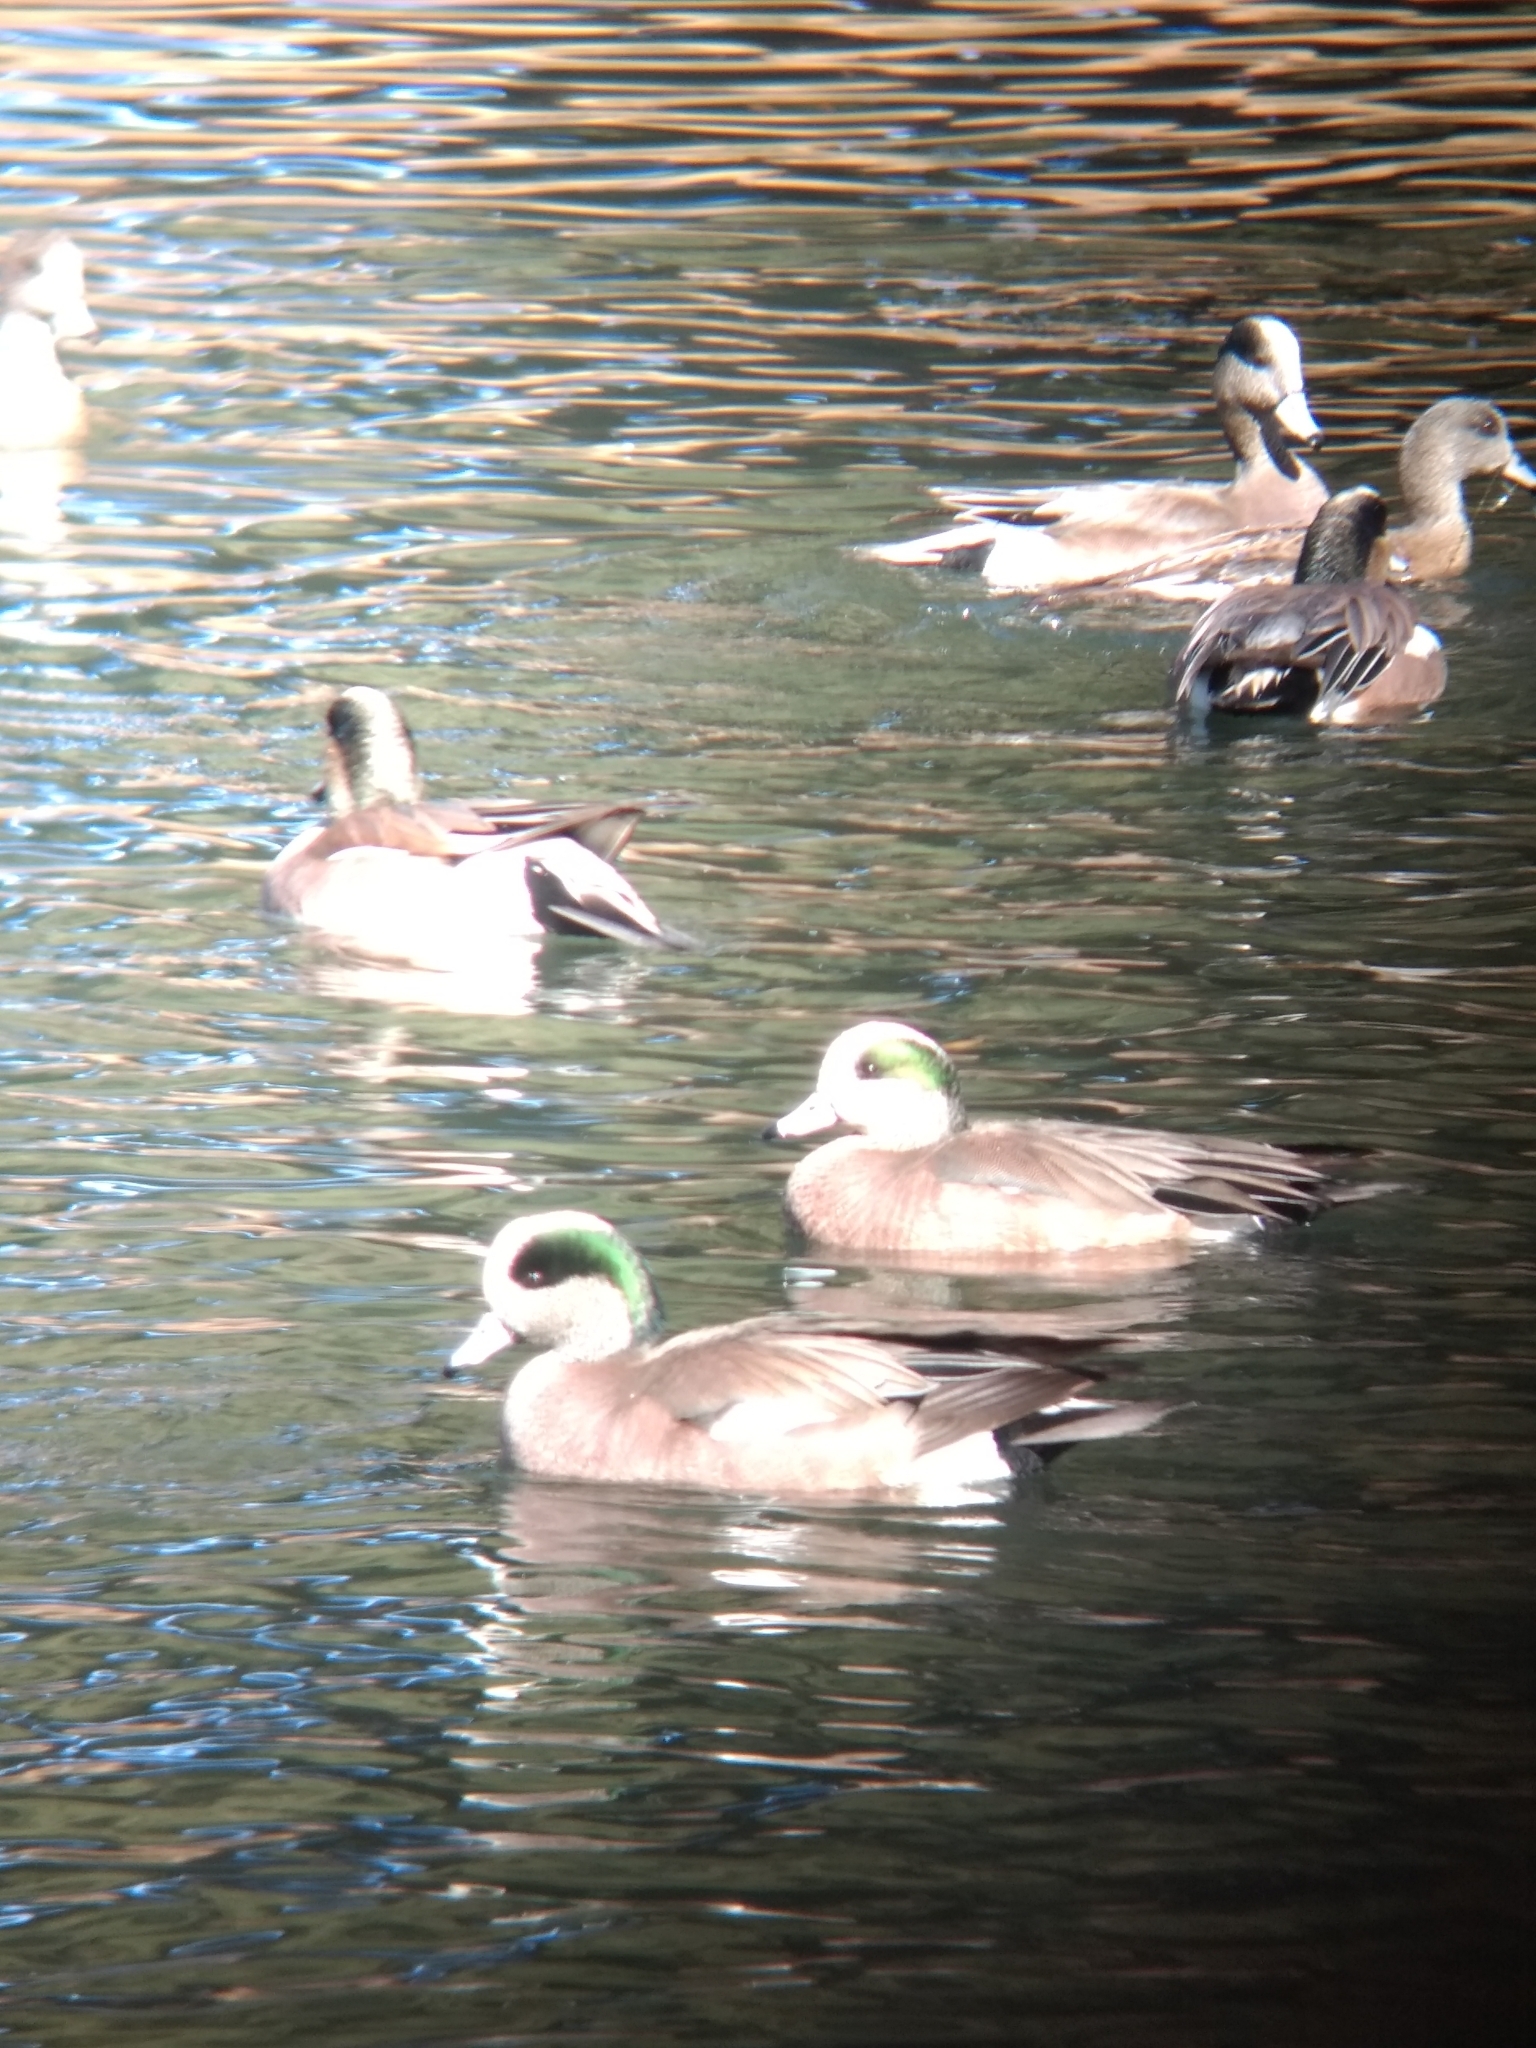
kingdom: Animalia
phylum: Chordata
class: Aves
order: Anseriformes
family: Anatidae
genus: Mareca
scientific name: Mareca americana
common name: American wigeon
